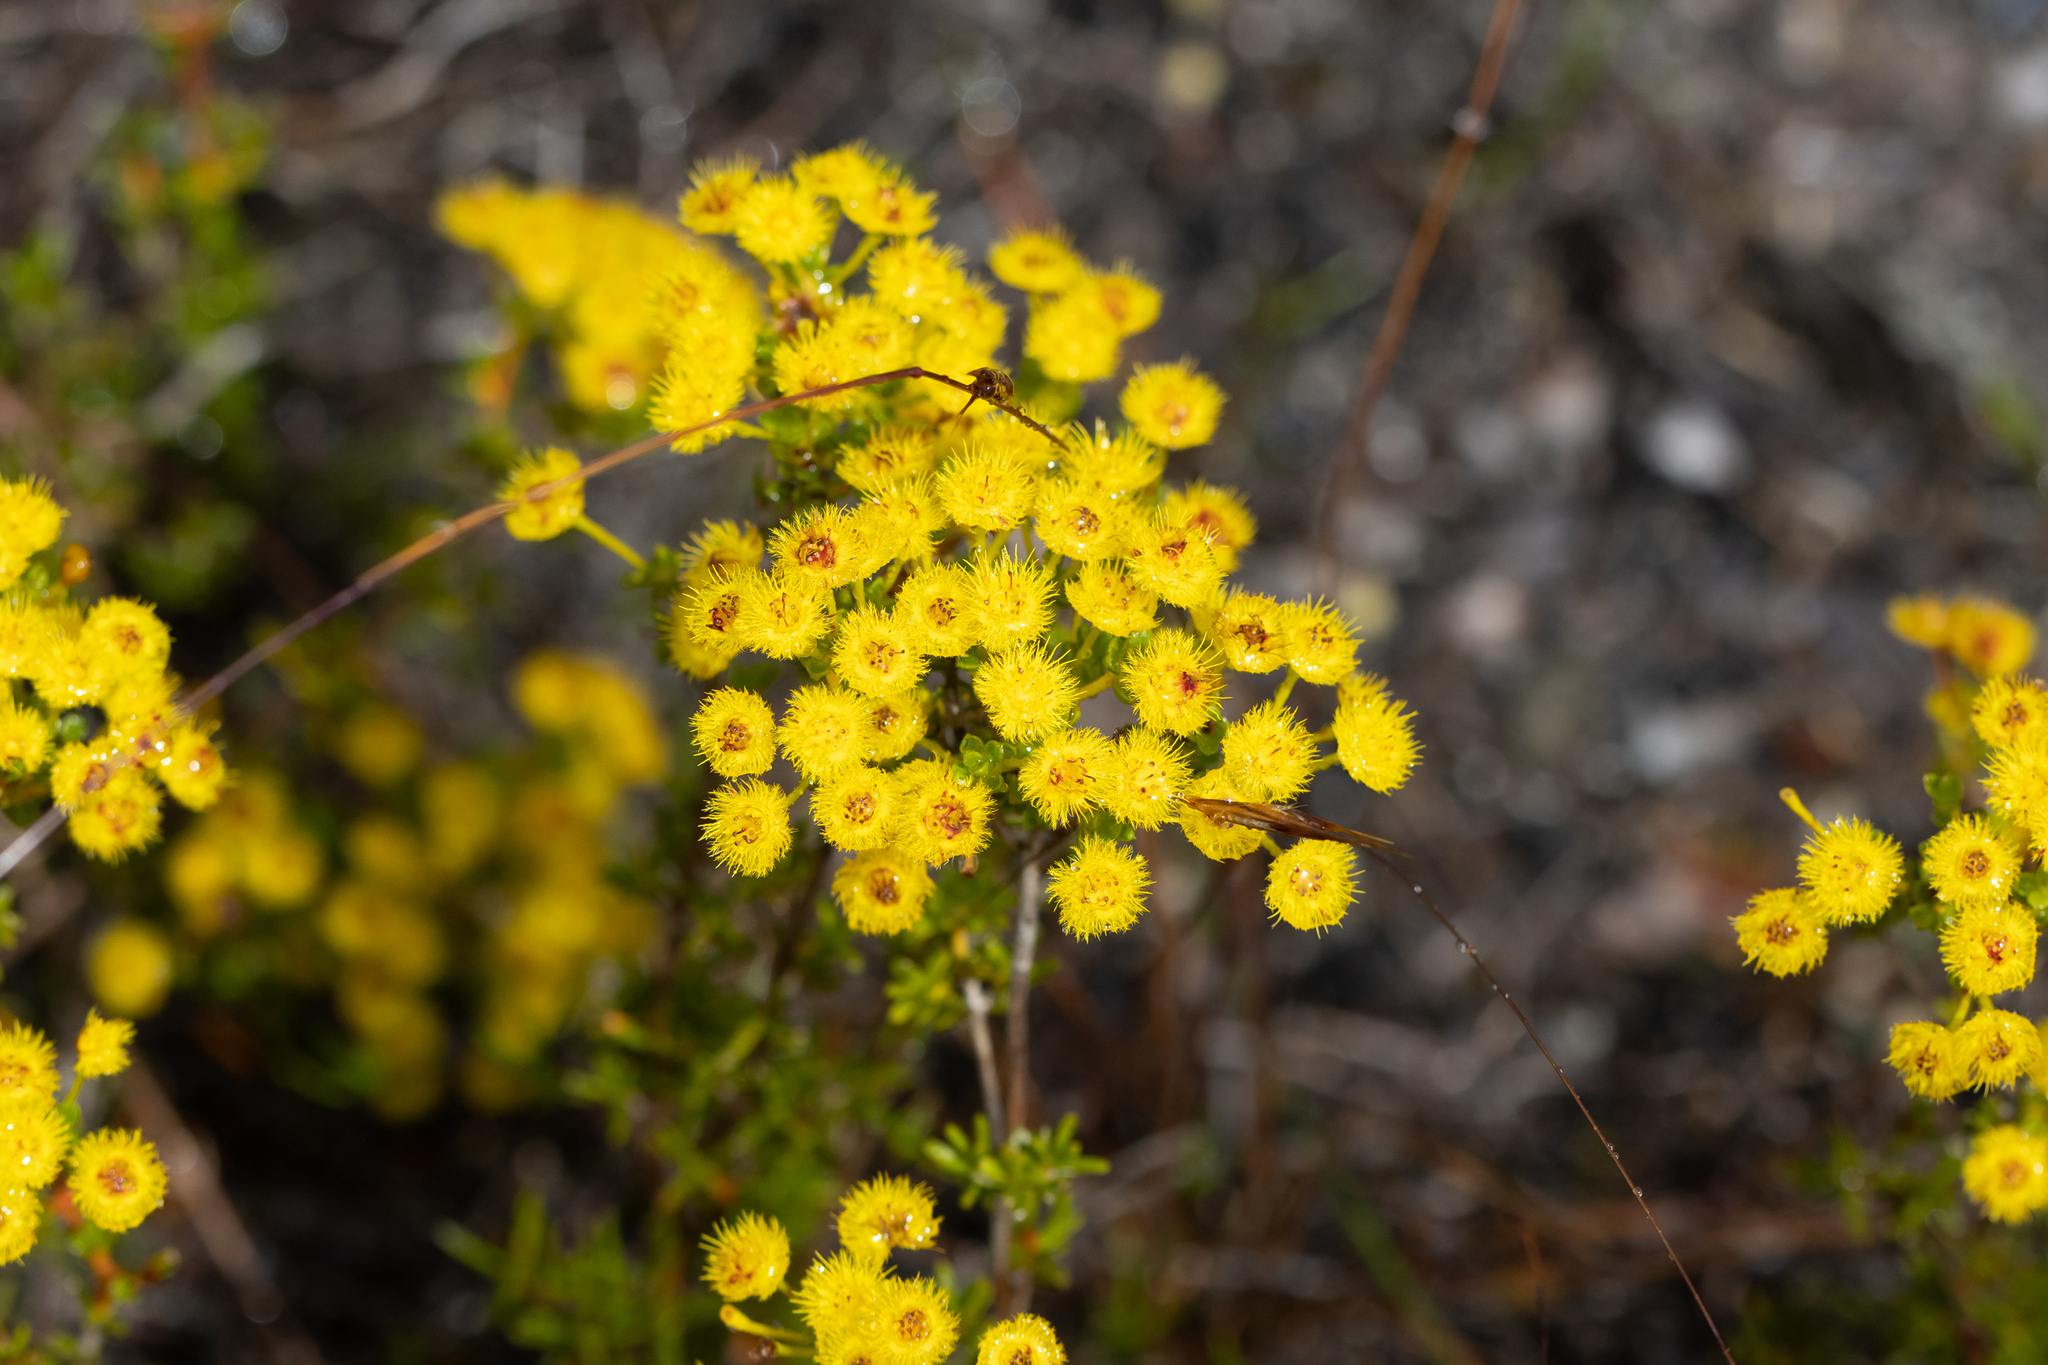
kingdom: Plantae
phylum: Tracheophyta
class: Magnoliopsida
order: Myrtales
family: Myrtaceae
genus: Verticordia
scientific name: Verticordia brevifolia
